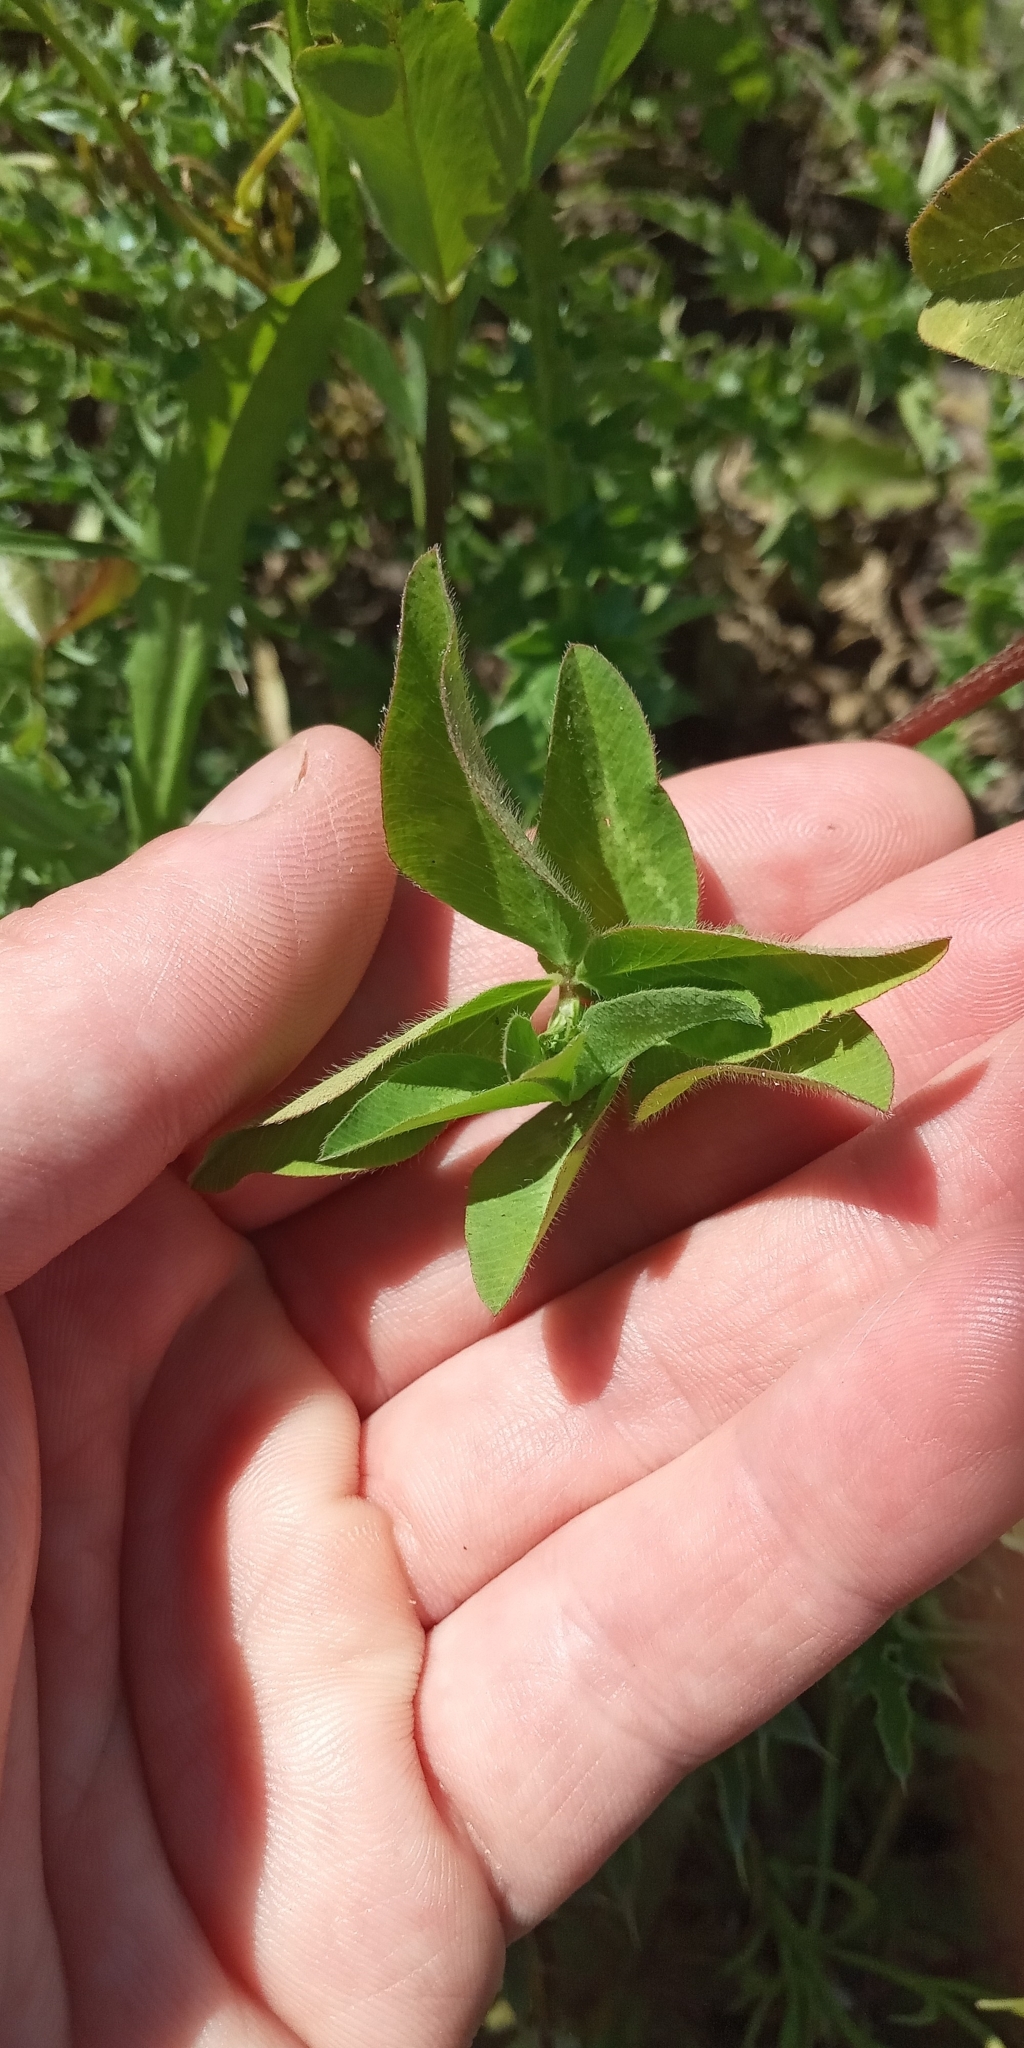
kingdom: Plantae
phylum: Tracheophyta
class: Magnoliopsida
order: Fabales
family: Fabaceae
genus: Trifolium
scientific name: Trifolium pratense
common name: Red clover
